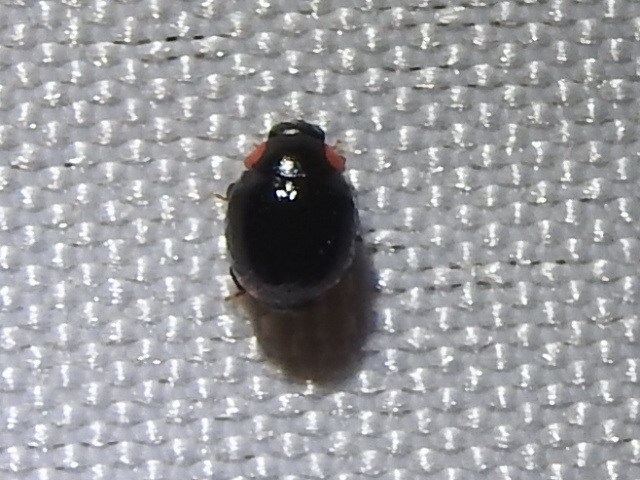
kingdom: Animalia
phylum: Arthropoda
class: Insecta
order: Coleoptera
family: Coccinellidae
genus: Hyperaspis
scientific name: Hyperaspis bigeminata
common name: Bigeminate sigil lady beetle
